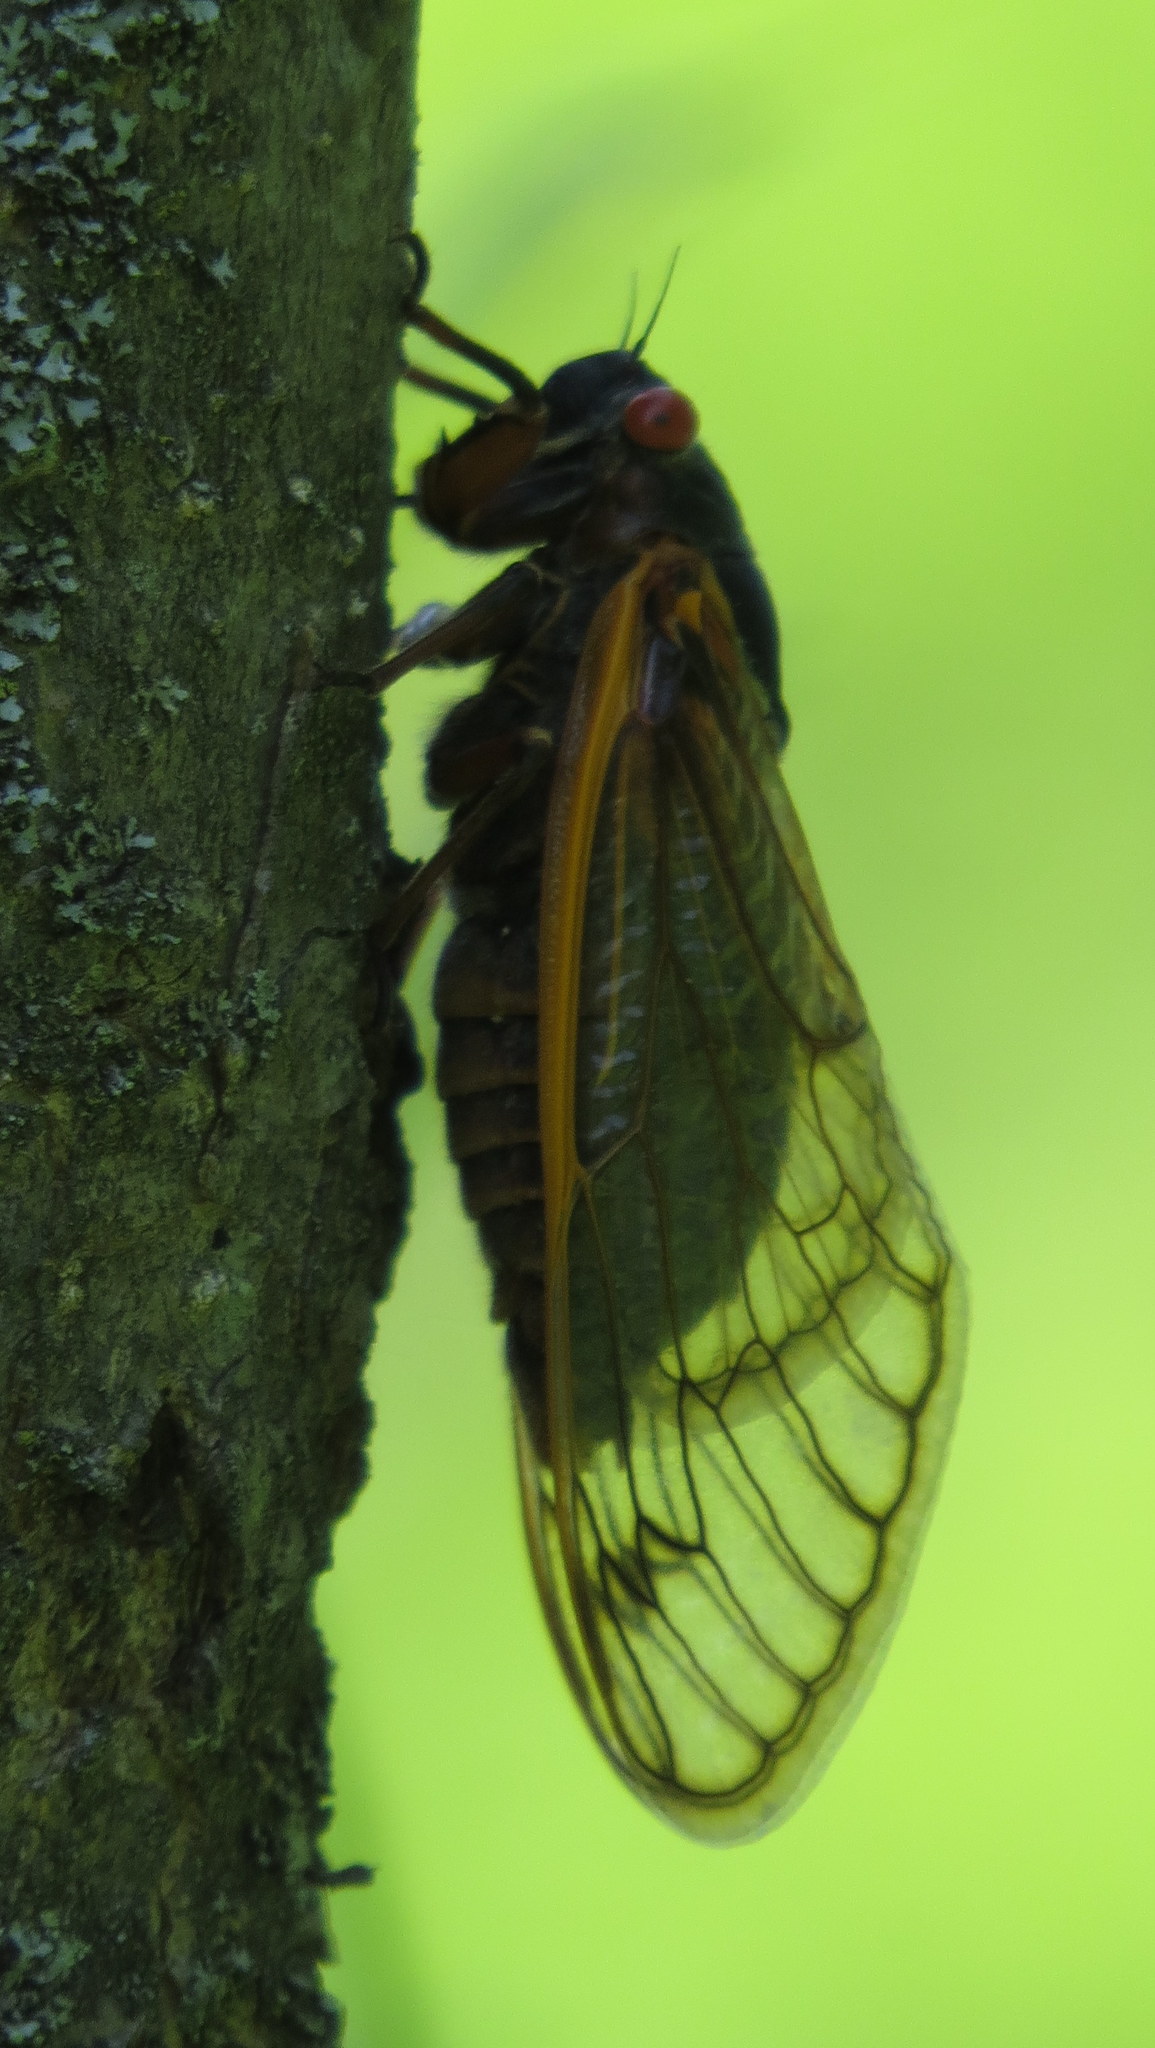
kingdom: Animalia
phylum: Arthropoda
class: Insecta
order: Hemiptera
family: Cicadidae
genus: Magicicada
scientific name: Magicicada septendecim
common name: Periodical cicada
